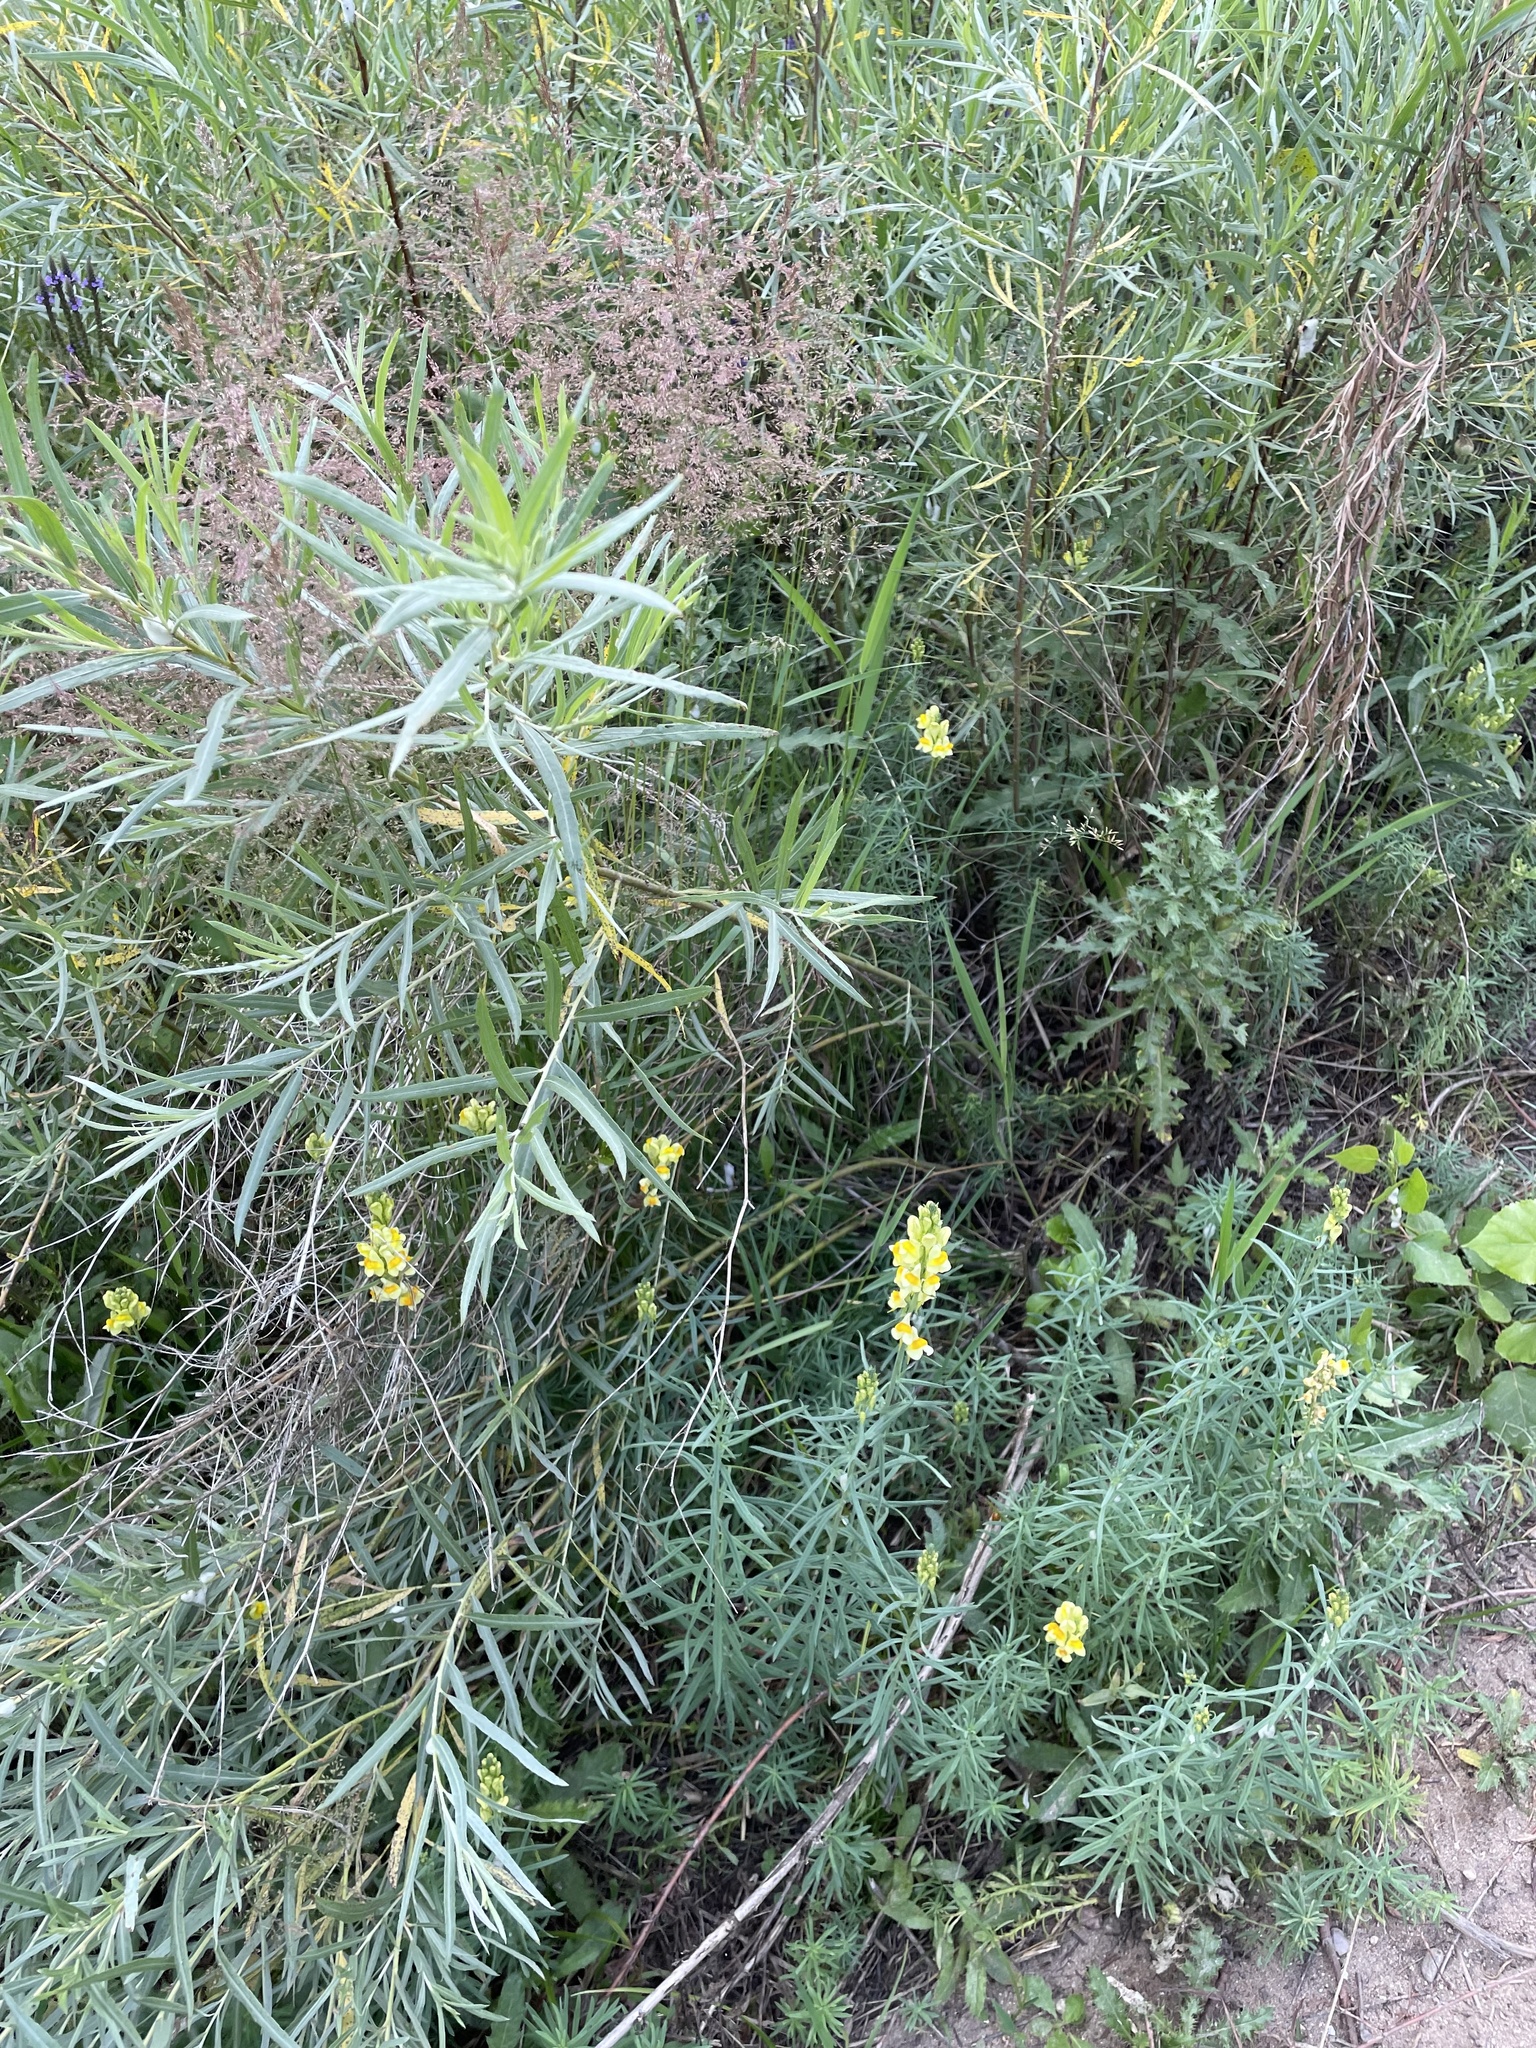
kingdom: Plantae
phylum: Tracheophyta
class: Magnoliopsida
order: Lamiales
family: Plantaginaceae
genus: Linaria
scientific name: Linaria vulgaris
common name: Butter and eggs
